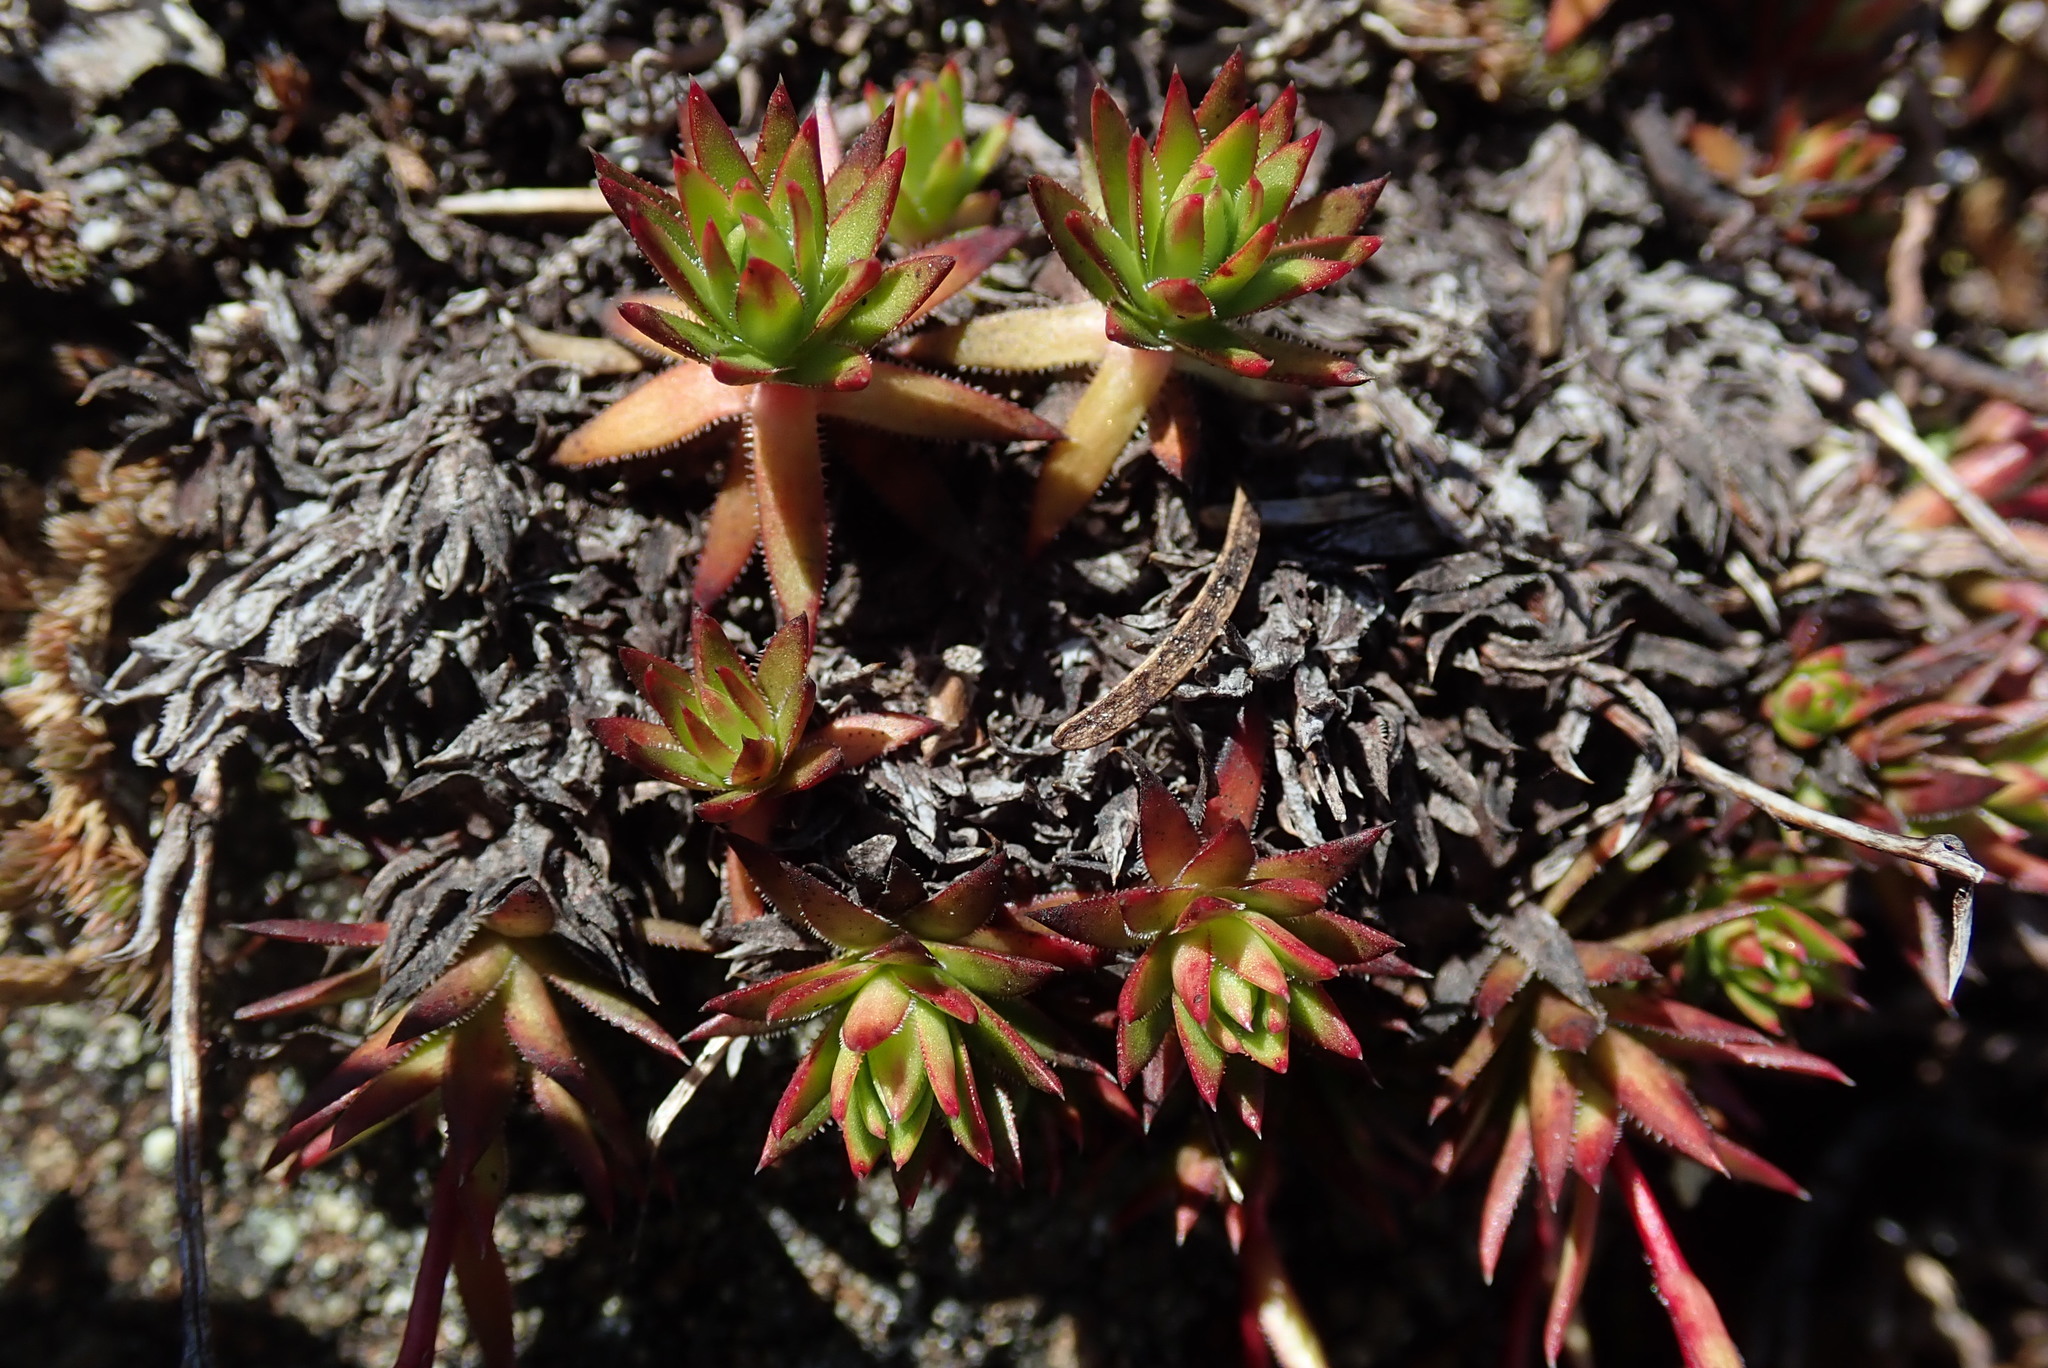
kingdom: Plantae
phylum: Tracheophyta
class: Magnoliopsida
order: Saxifragales
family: Saxifragaceae
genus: Saxifraga
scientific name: Saxifraga bronchialis
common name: Matted saxifrage
